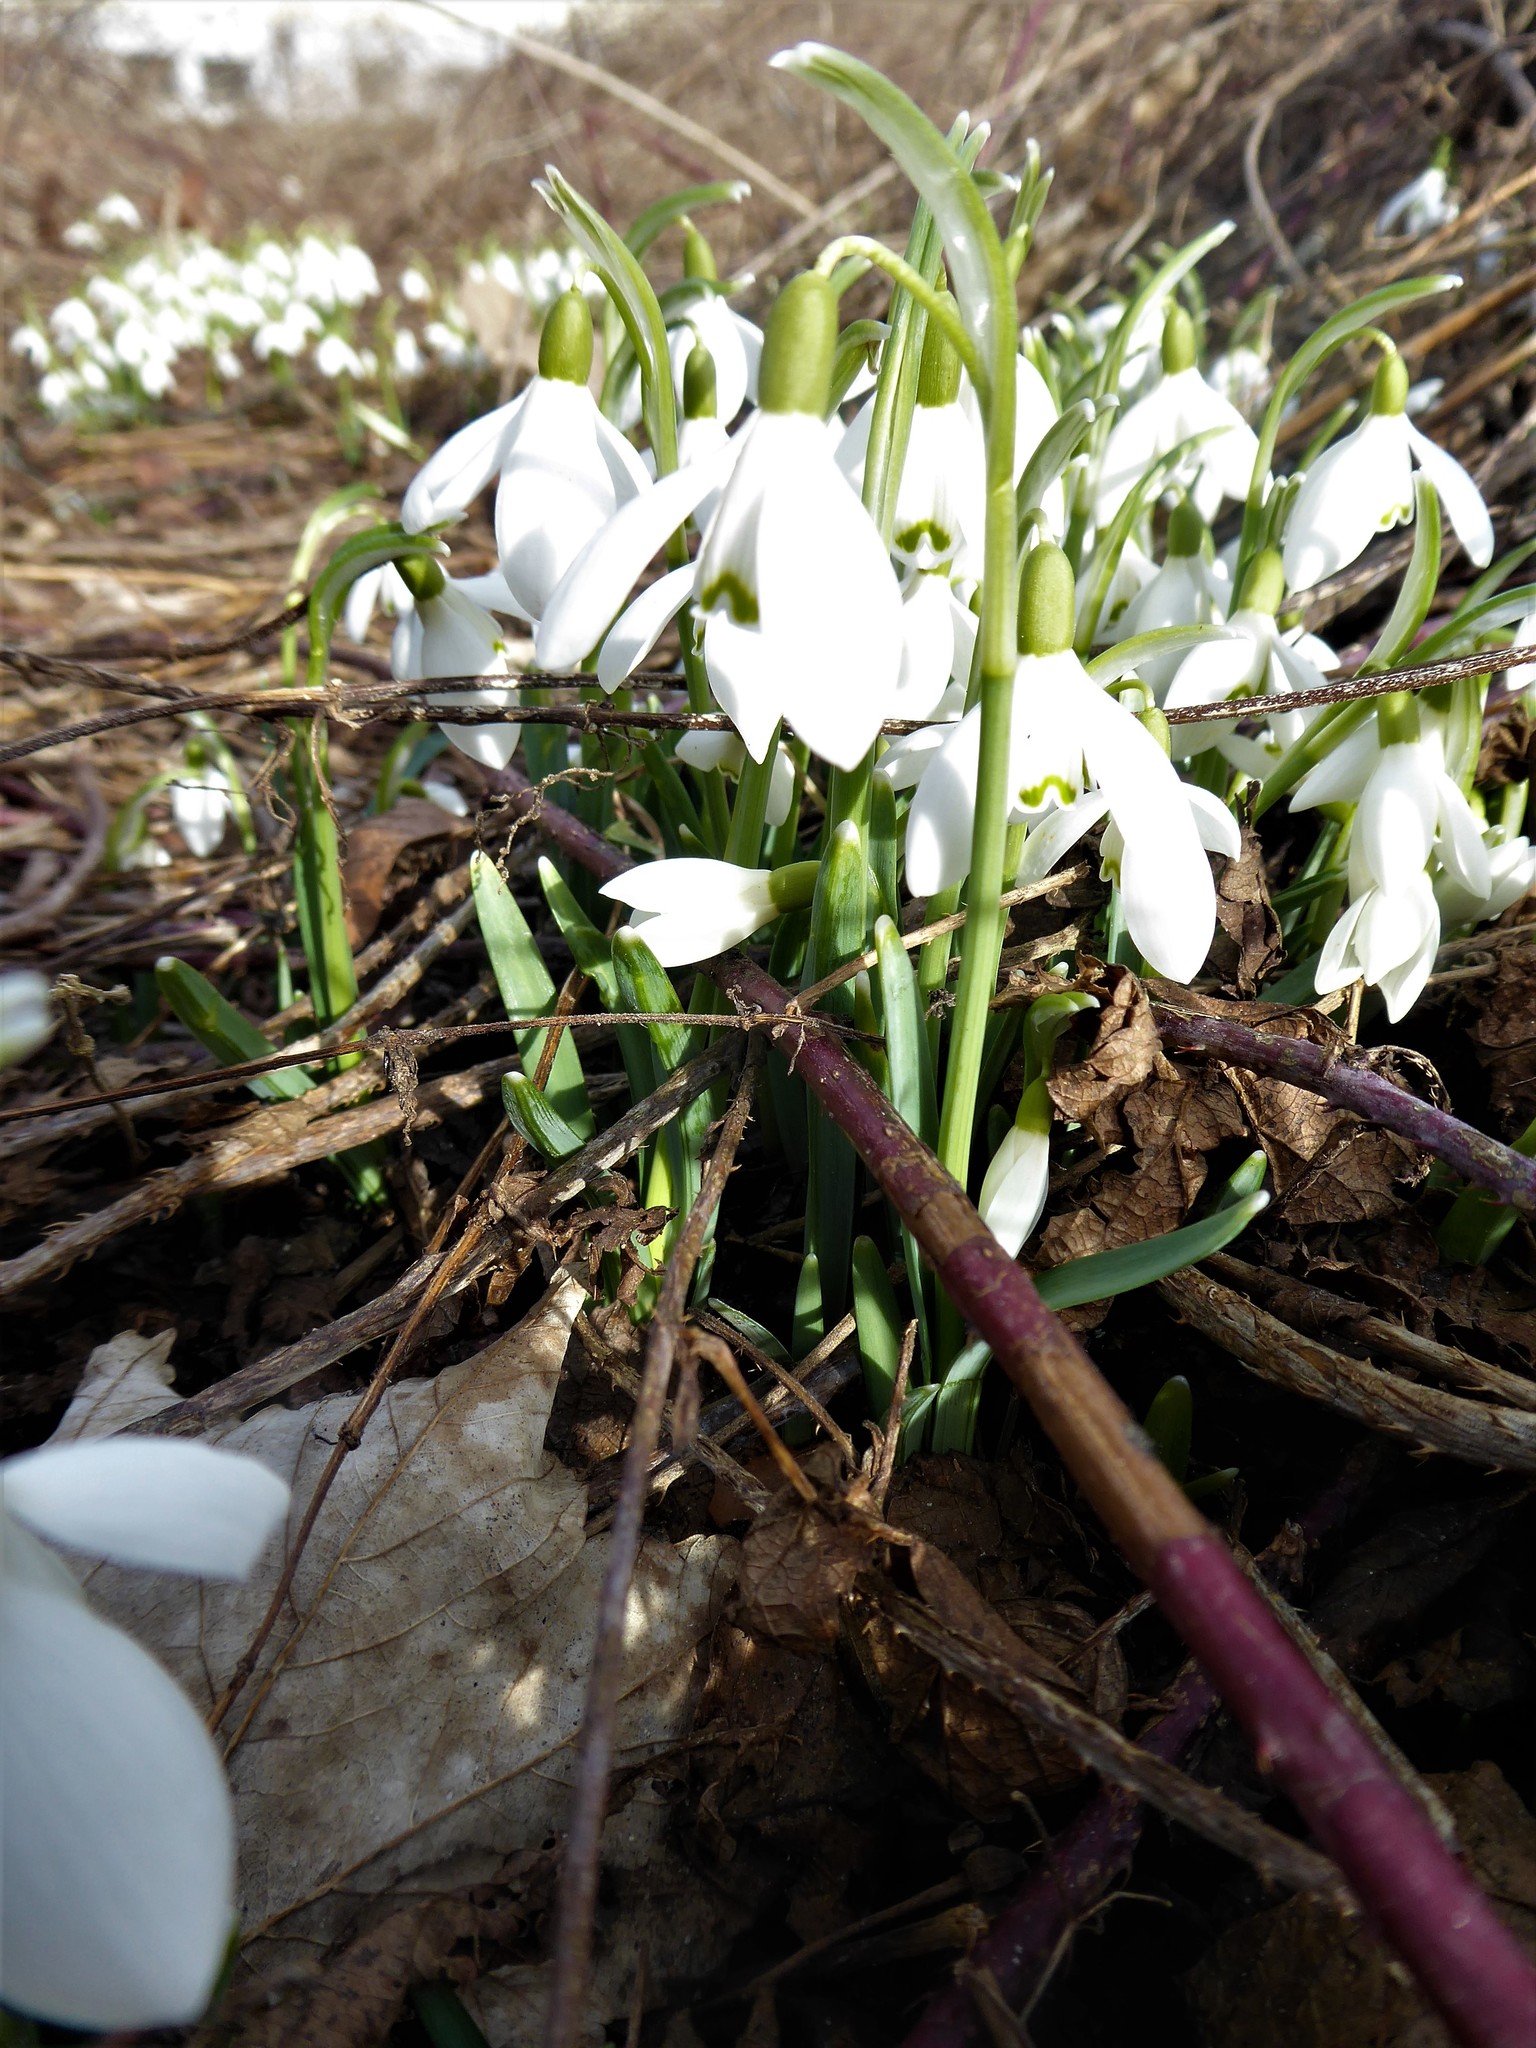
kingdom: Plantae
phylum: Tracheophyta
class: Liliopsida
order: Asparagales
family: Amaryllidaceae
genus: Galanthus
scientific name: Galanthus nivalis
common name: Snowdrop
